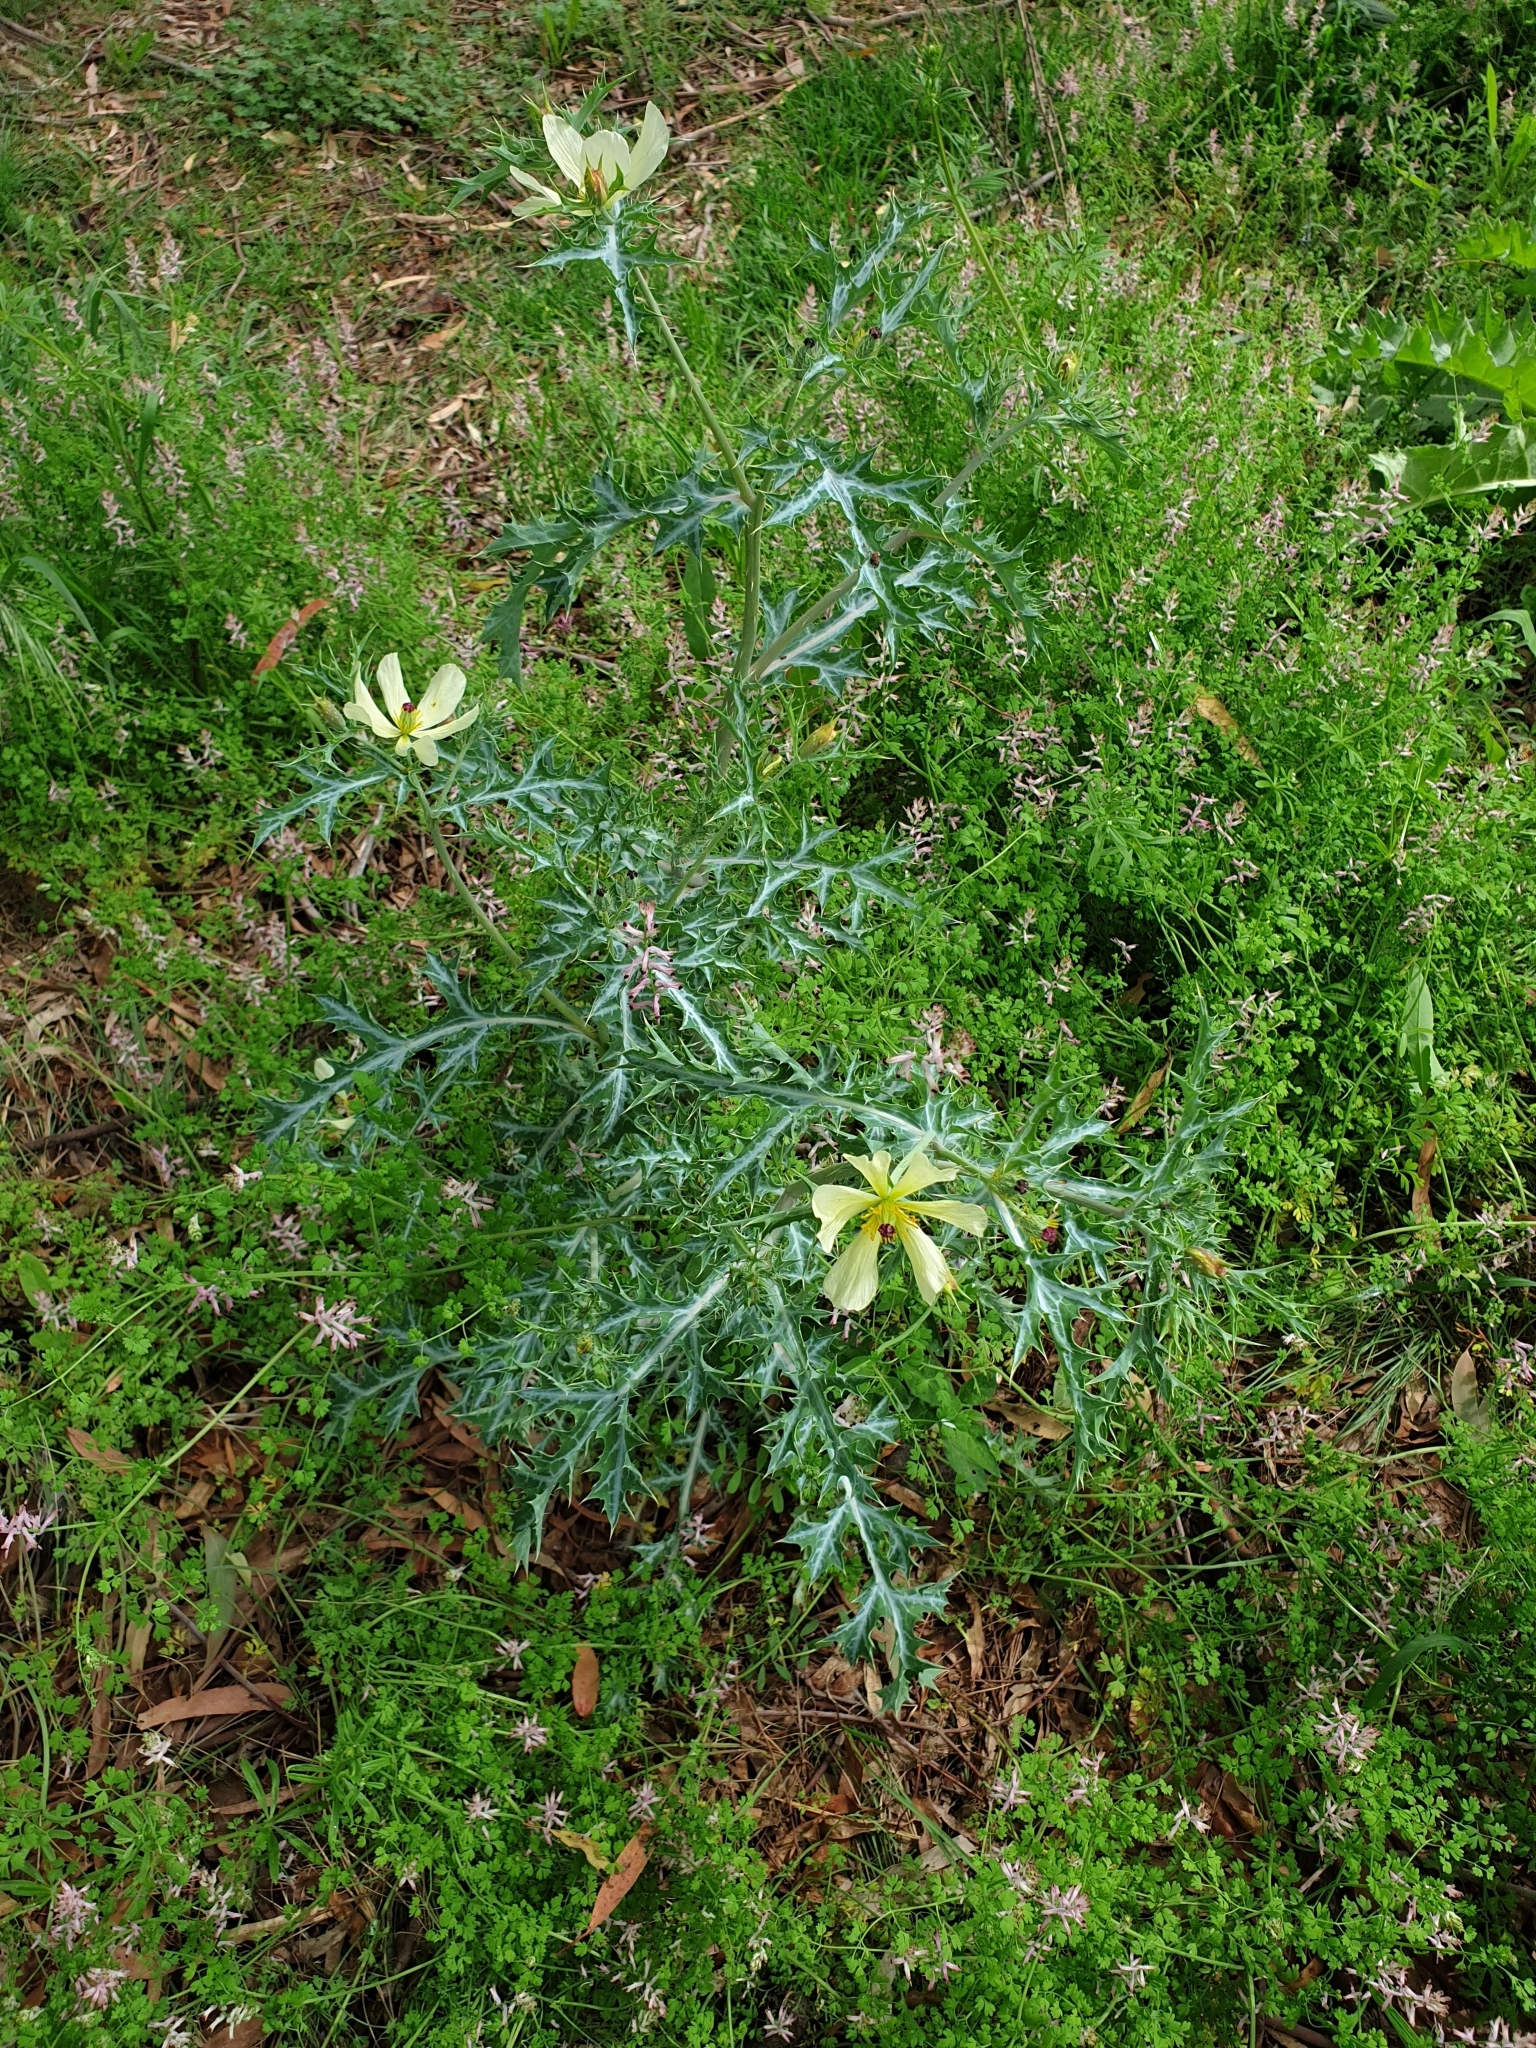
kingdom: Plantae
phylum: Tracheophyta
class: Magnoliopsida
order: Ranunculales
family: Papaveraceae
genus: Argemone
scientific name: Argemone ochroleuca
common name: White-flower mexican-poppy
